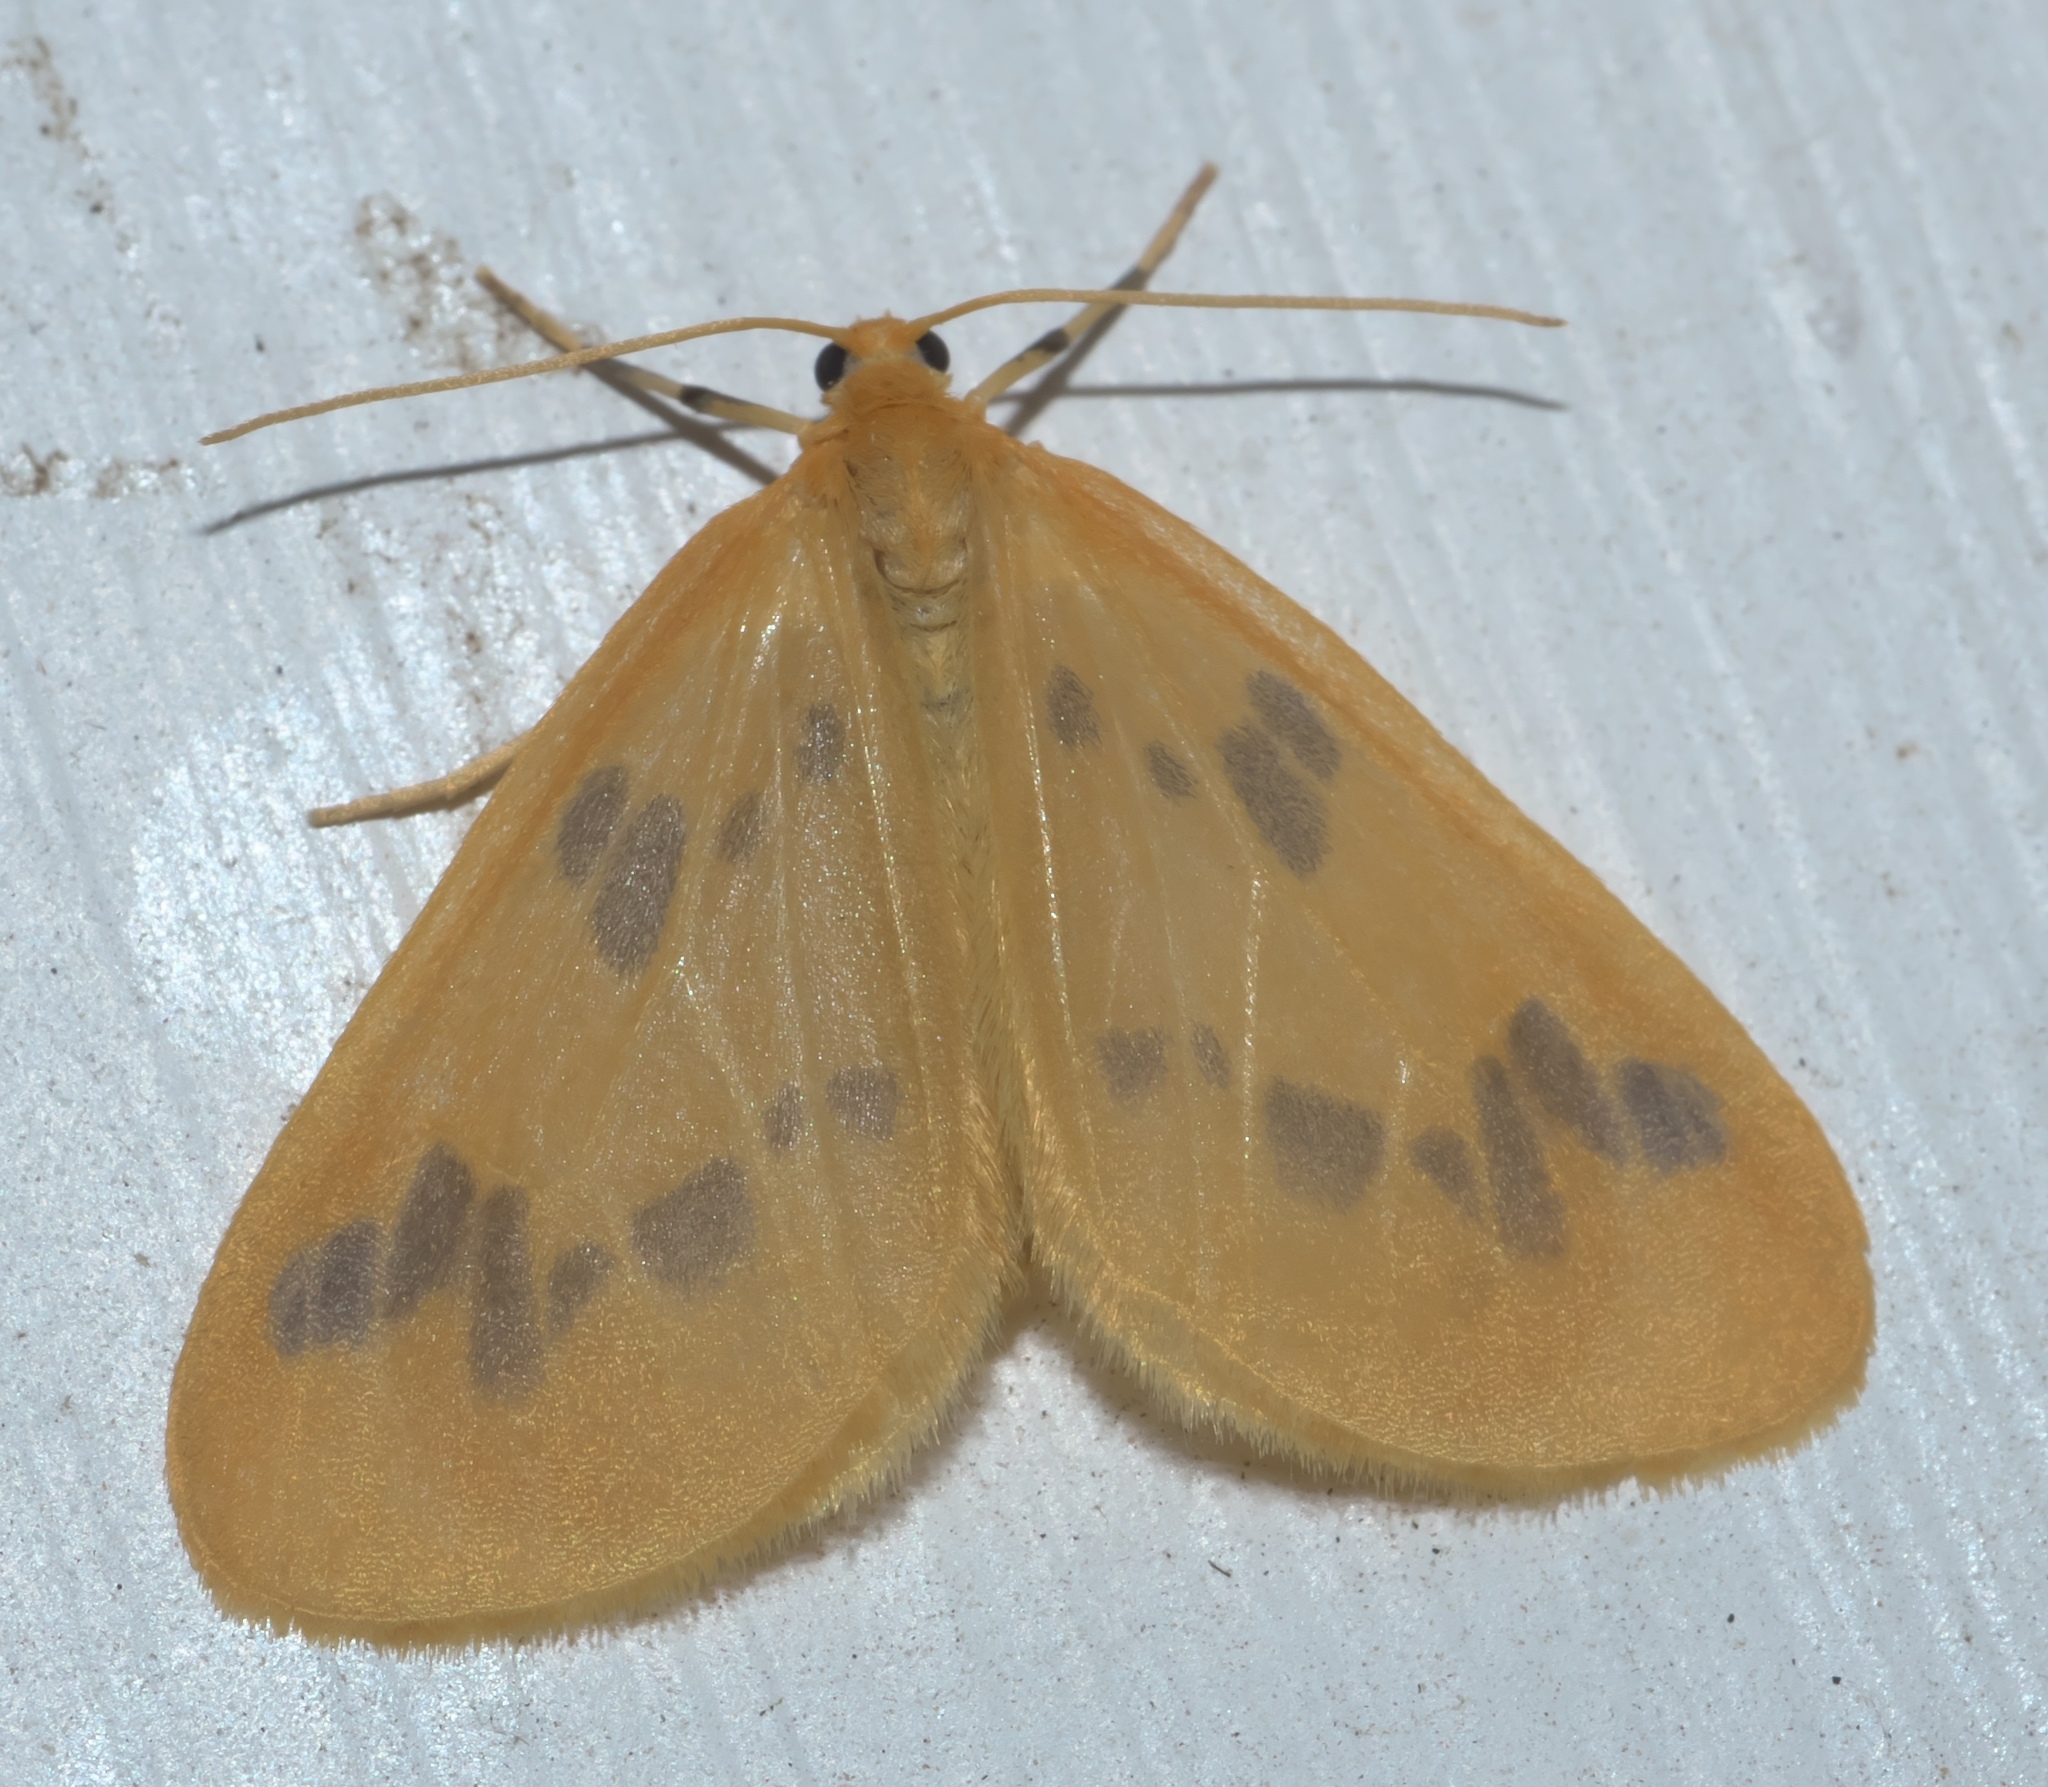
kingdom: Animalia
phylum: Arthropoda
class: Insecta
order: Lepidoptera
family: Geometridae
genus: Eubaphe
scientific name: Eubaphe mendica
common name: Beggar
